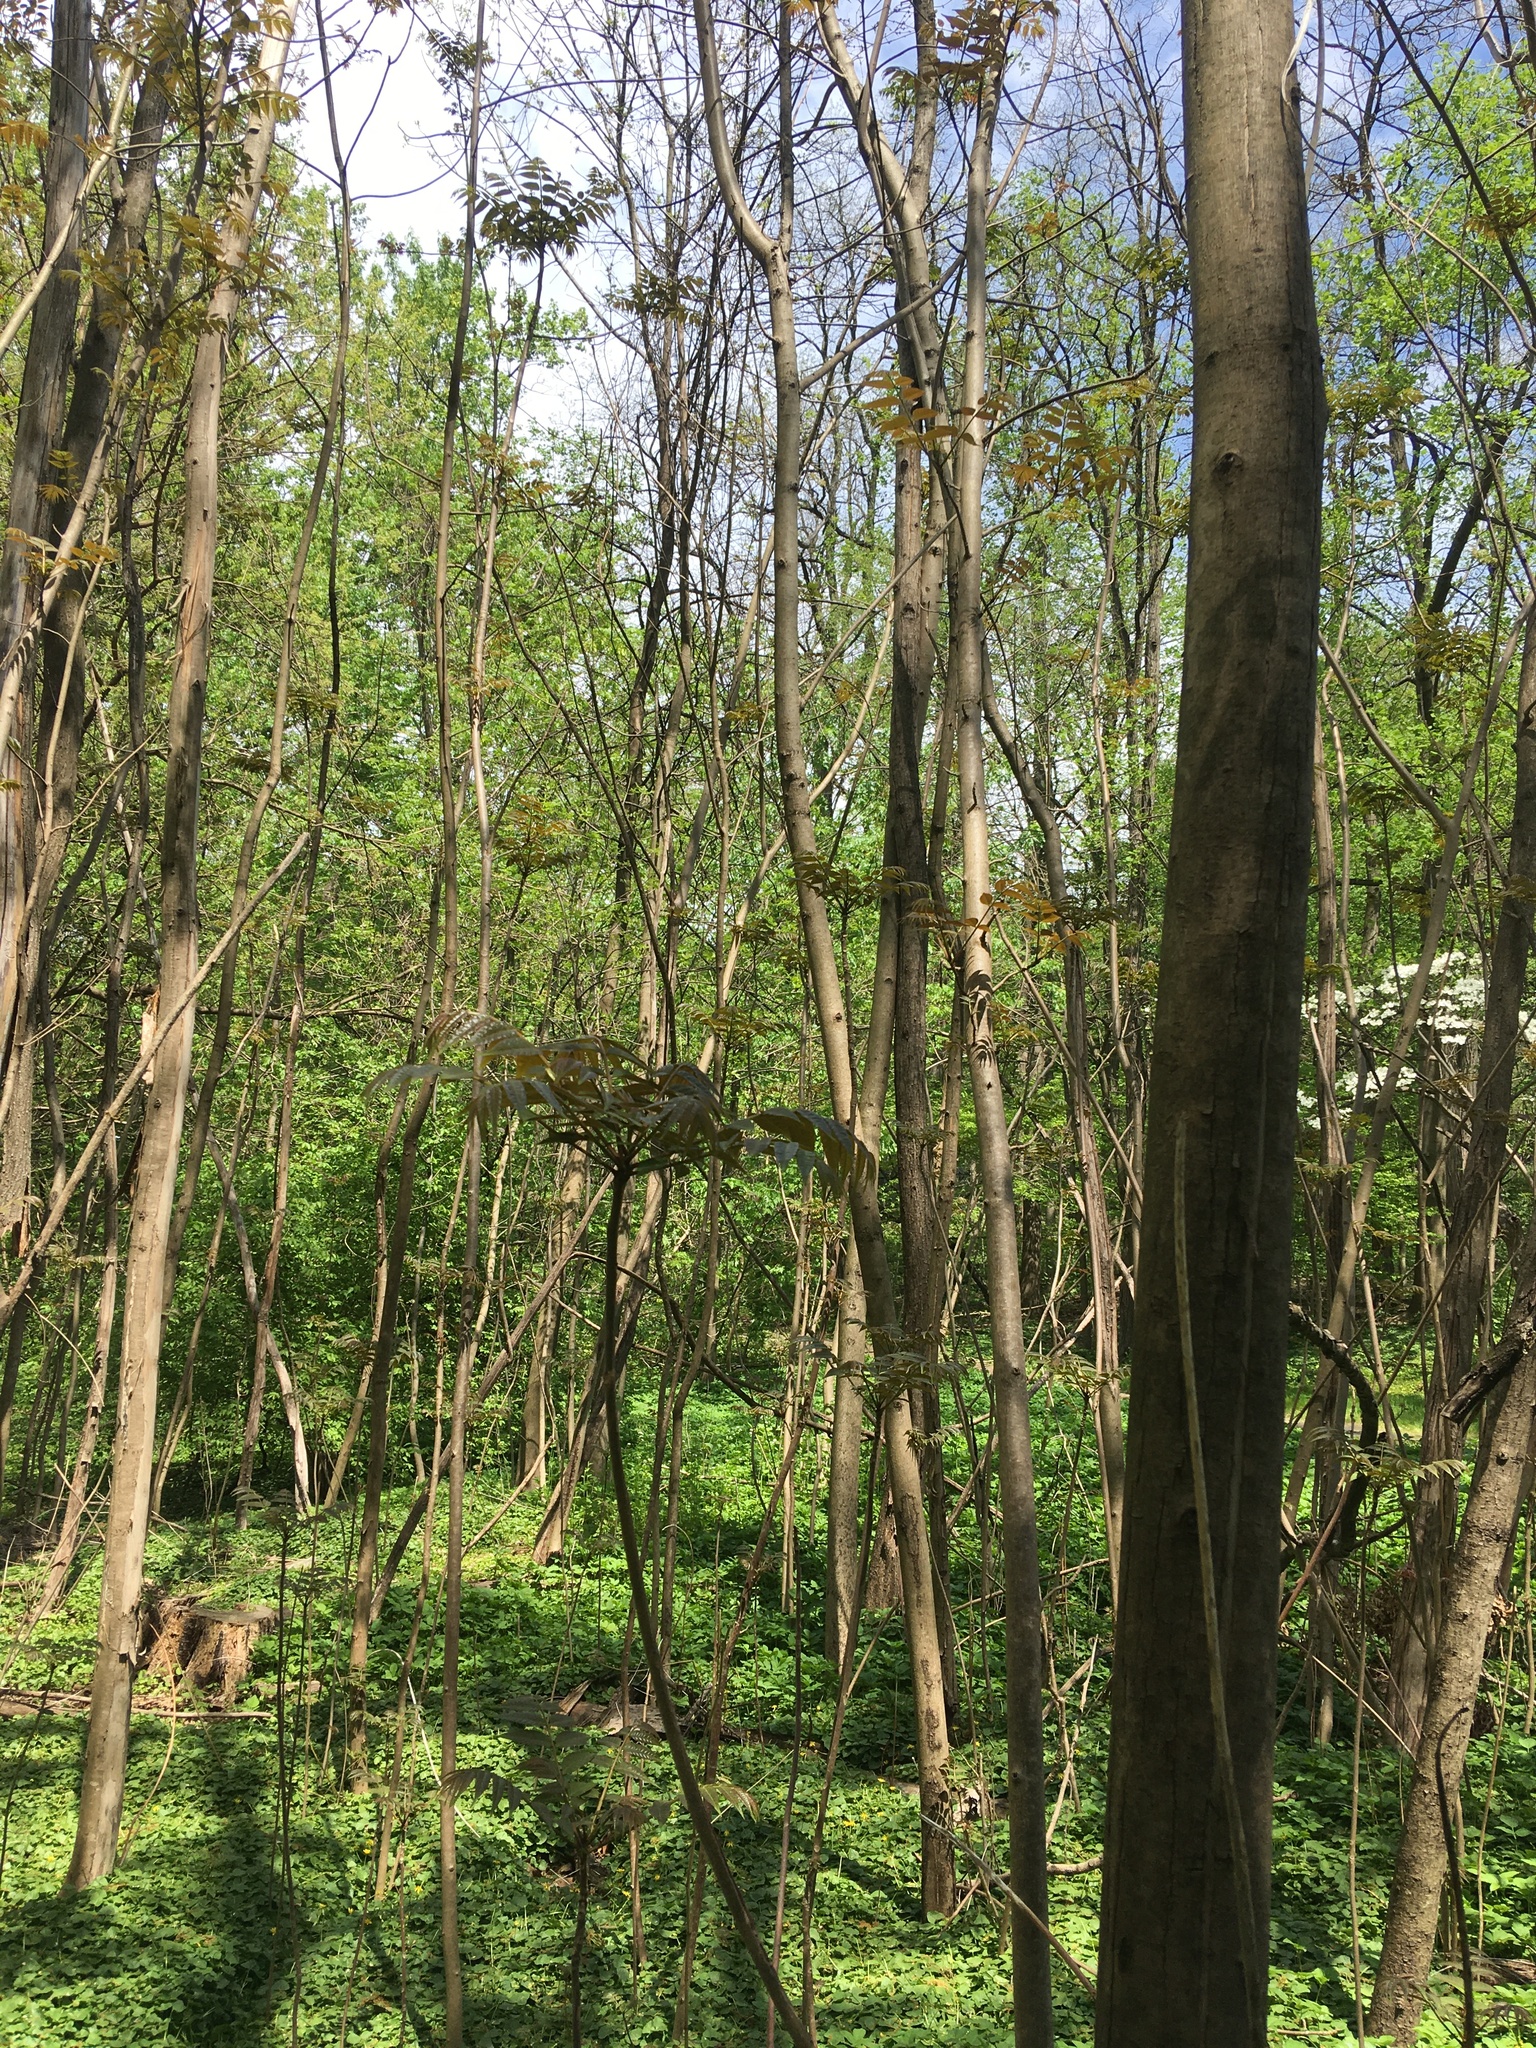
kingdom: Plantae
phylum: Tracheophyta
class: Magnoliopsida
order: Sapindales
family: Meliaceae
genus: Toona
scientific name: Toona sinensis
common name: Red toon
